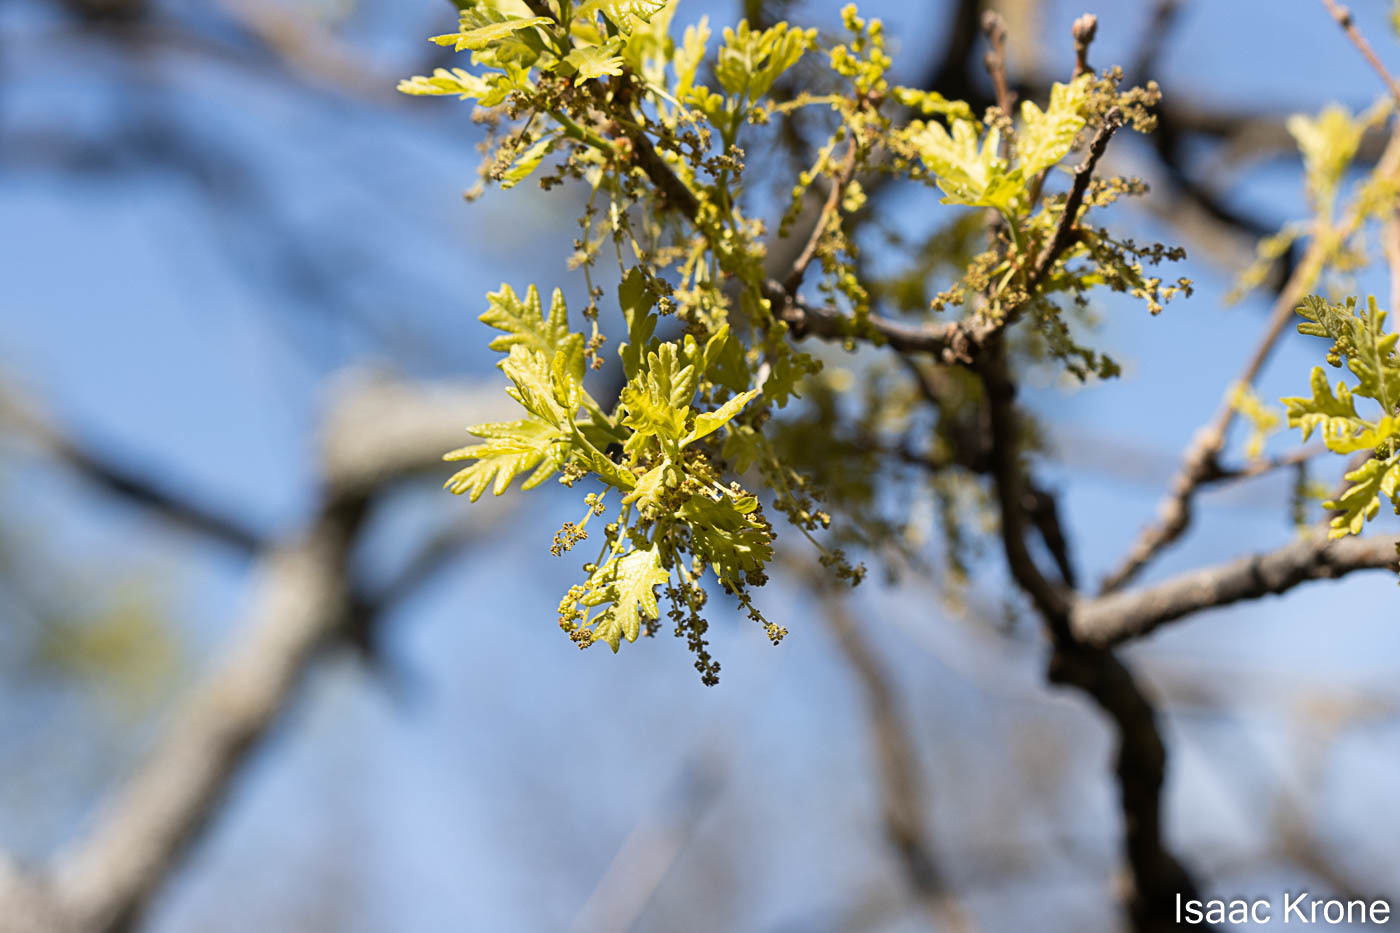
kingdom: Animalia
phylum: Arthropoda
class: Insecta
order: Hymenoptera
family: Cynipidae
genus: Andricus
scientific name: Andricus quercuscalifornicus
